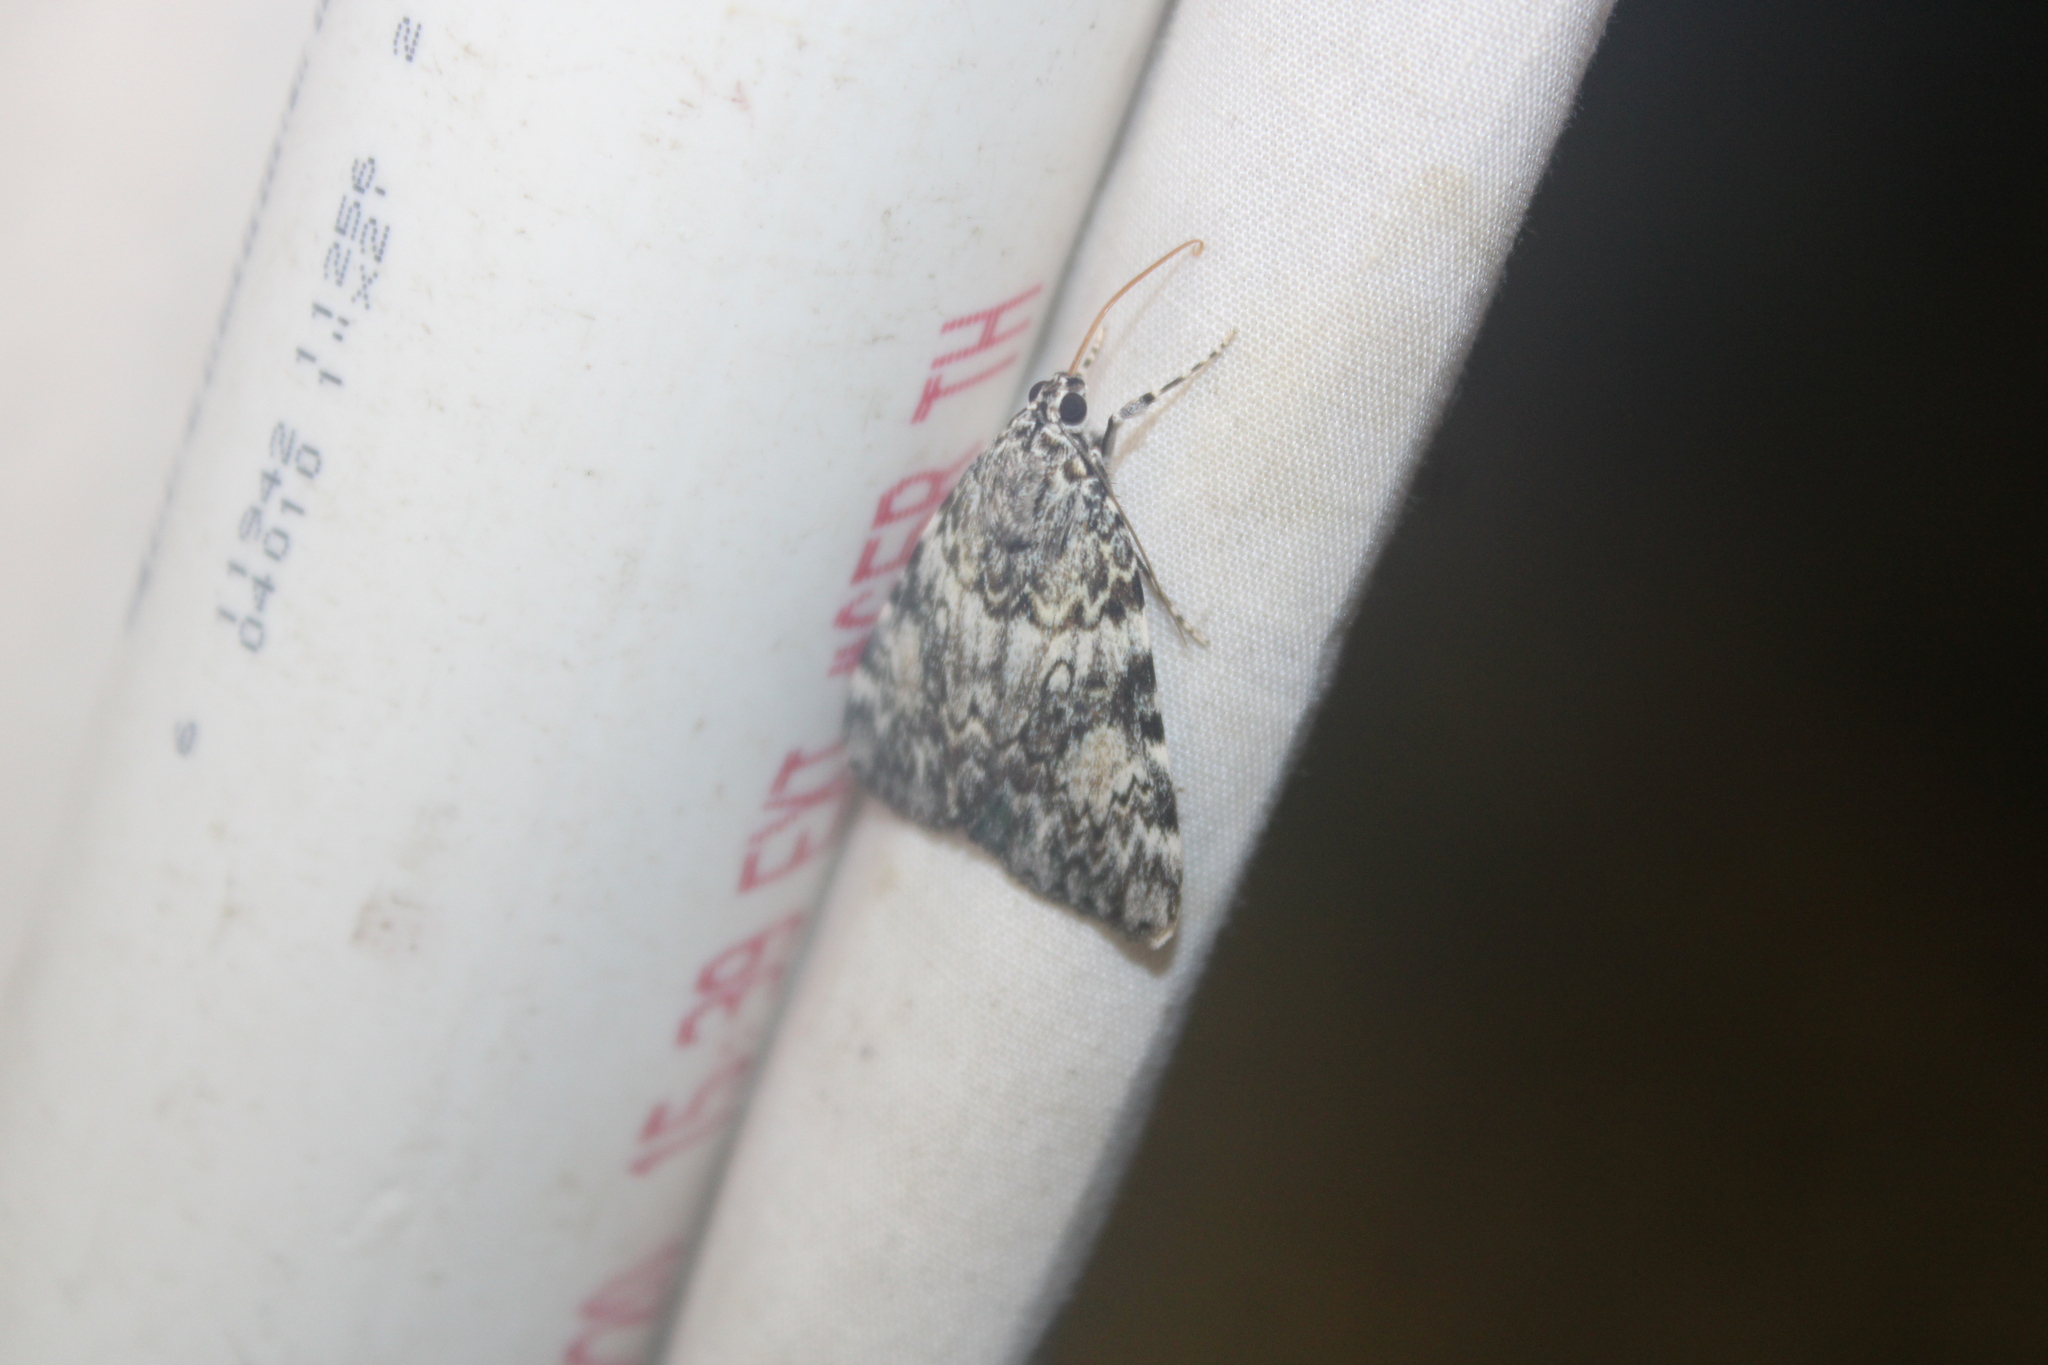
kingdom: Animalia
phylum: Arthropoda
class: Insecta
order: Lepidoptera
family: Erebidae
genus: Catocala
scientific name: Catocala lineella
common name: Little lined underwing
